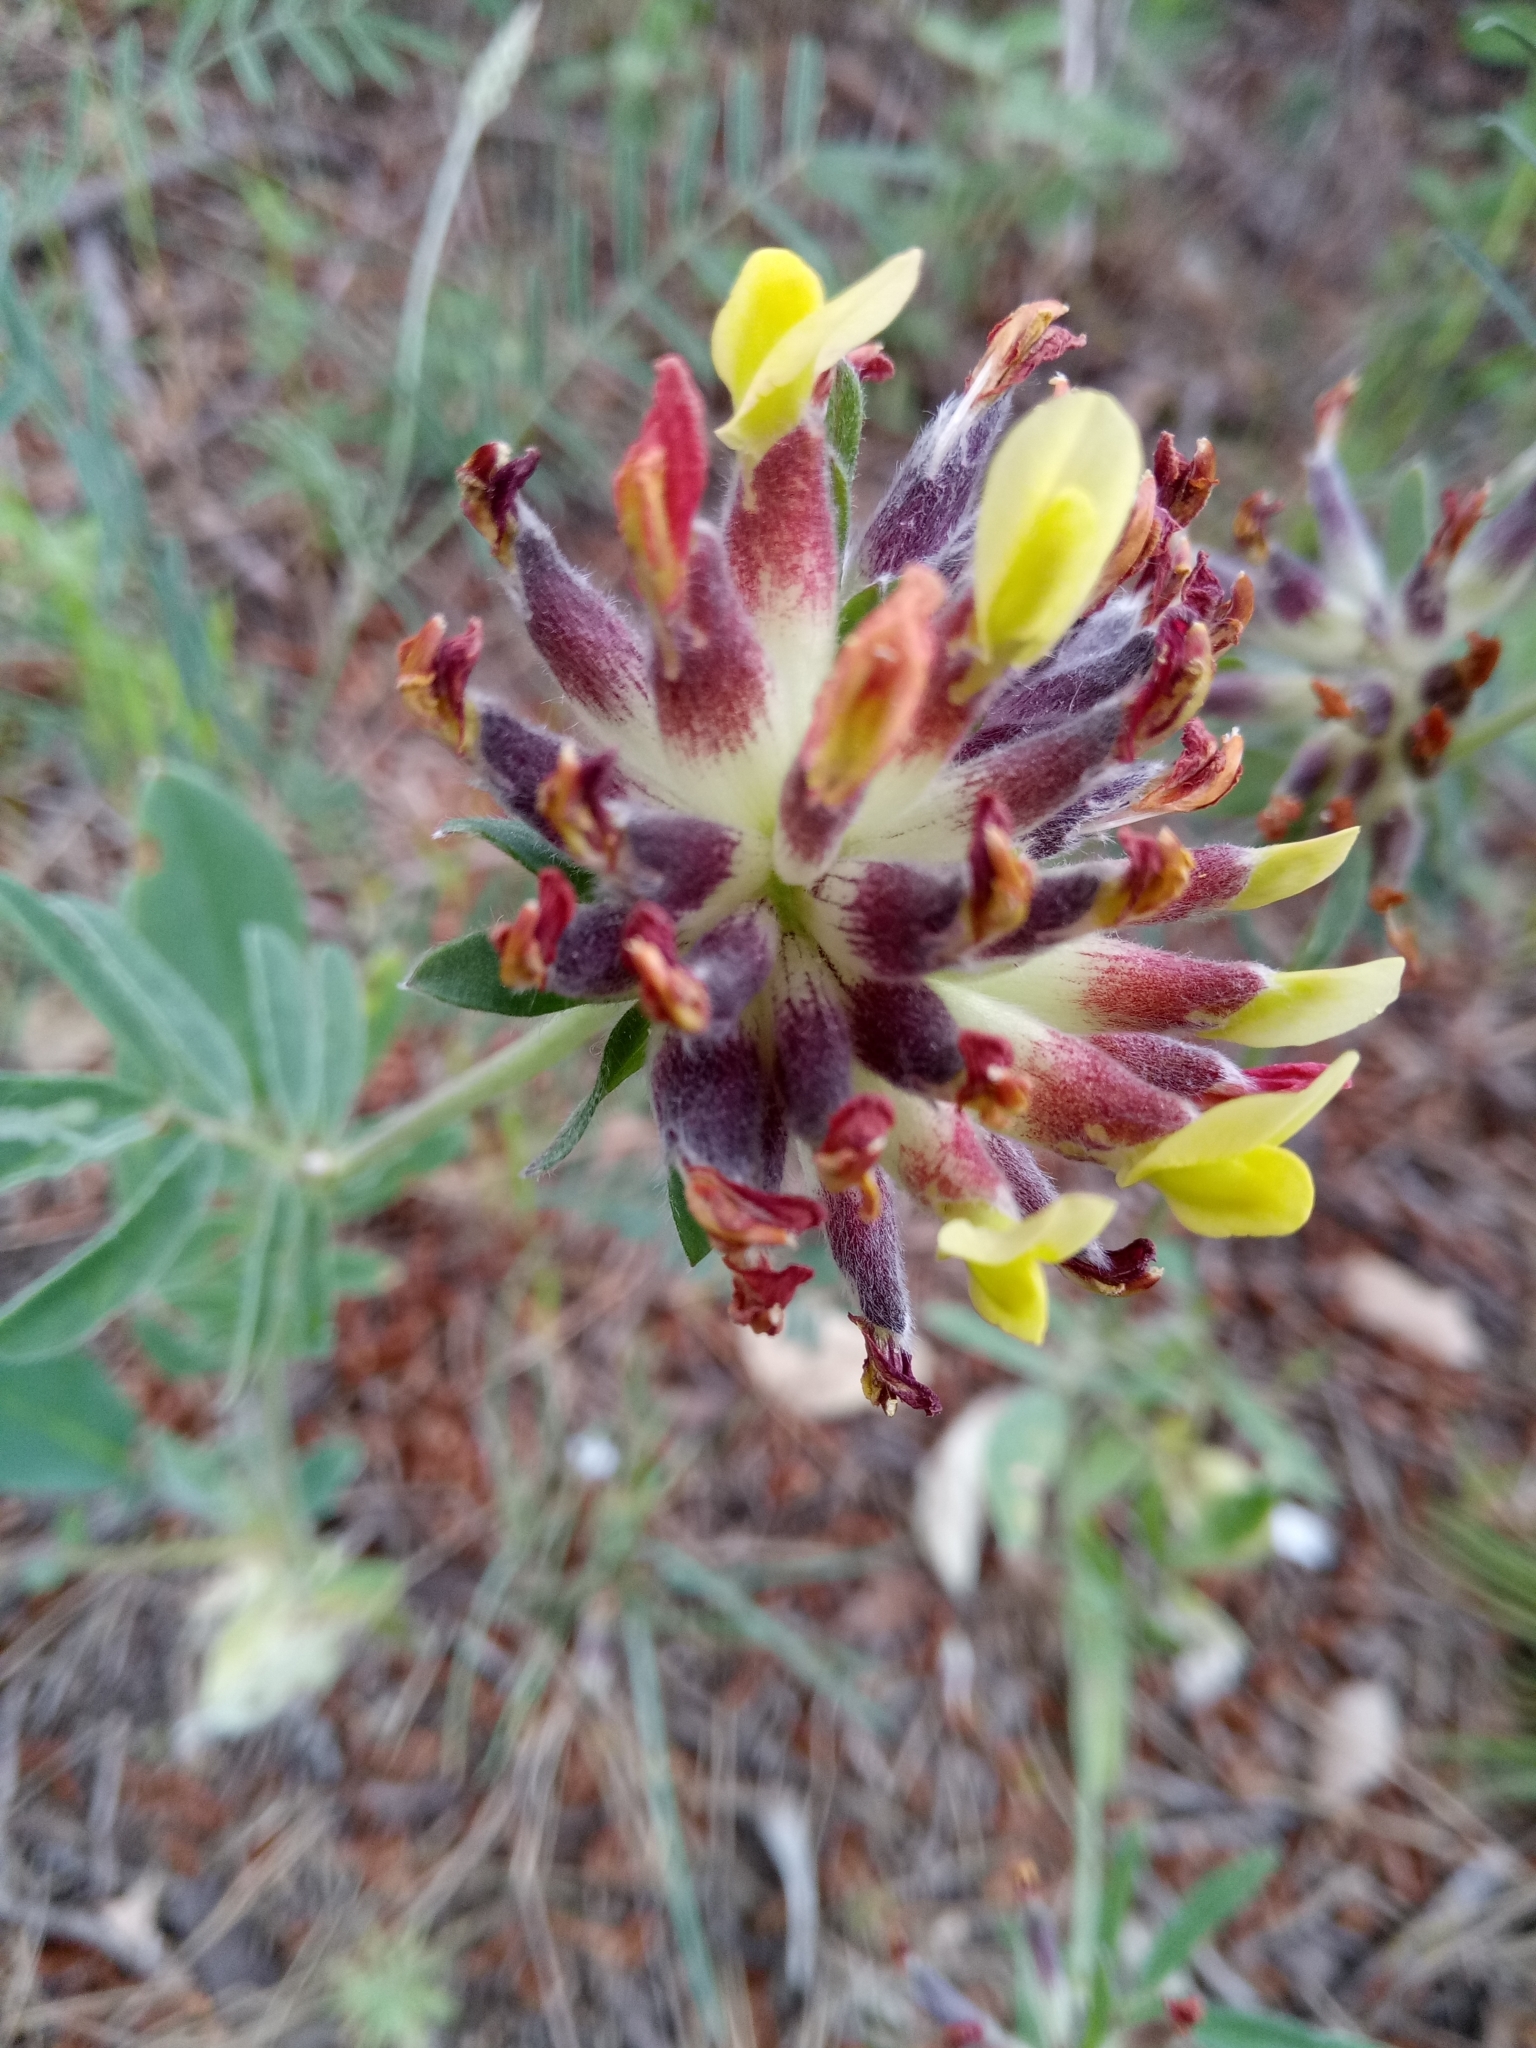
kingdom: Plantae
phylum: Tracheophyta
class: Magnoliopsida
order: Fabales
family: Fabaceae
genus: Anthyllis
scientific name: Anthyllis vulneraria
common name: Kidney vetch
